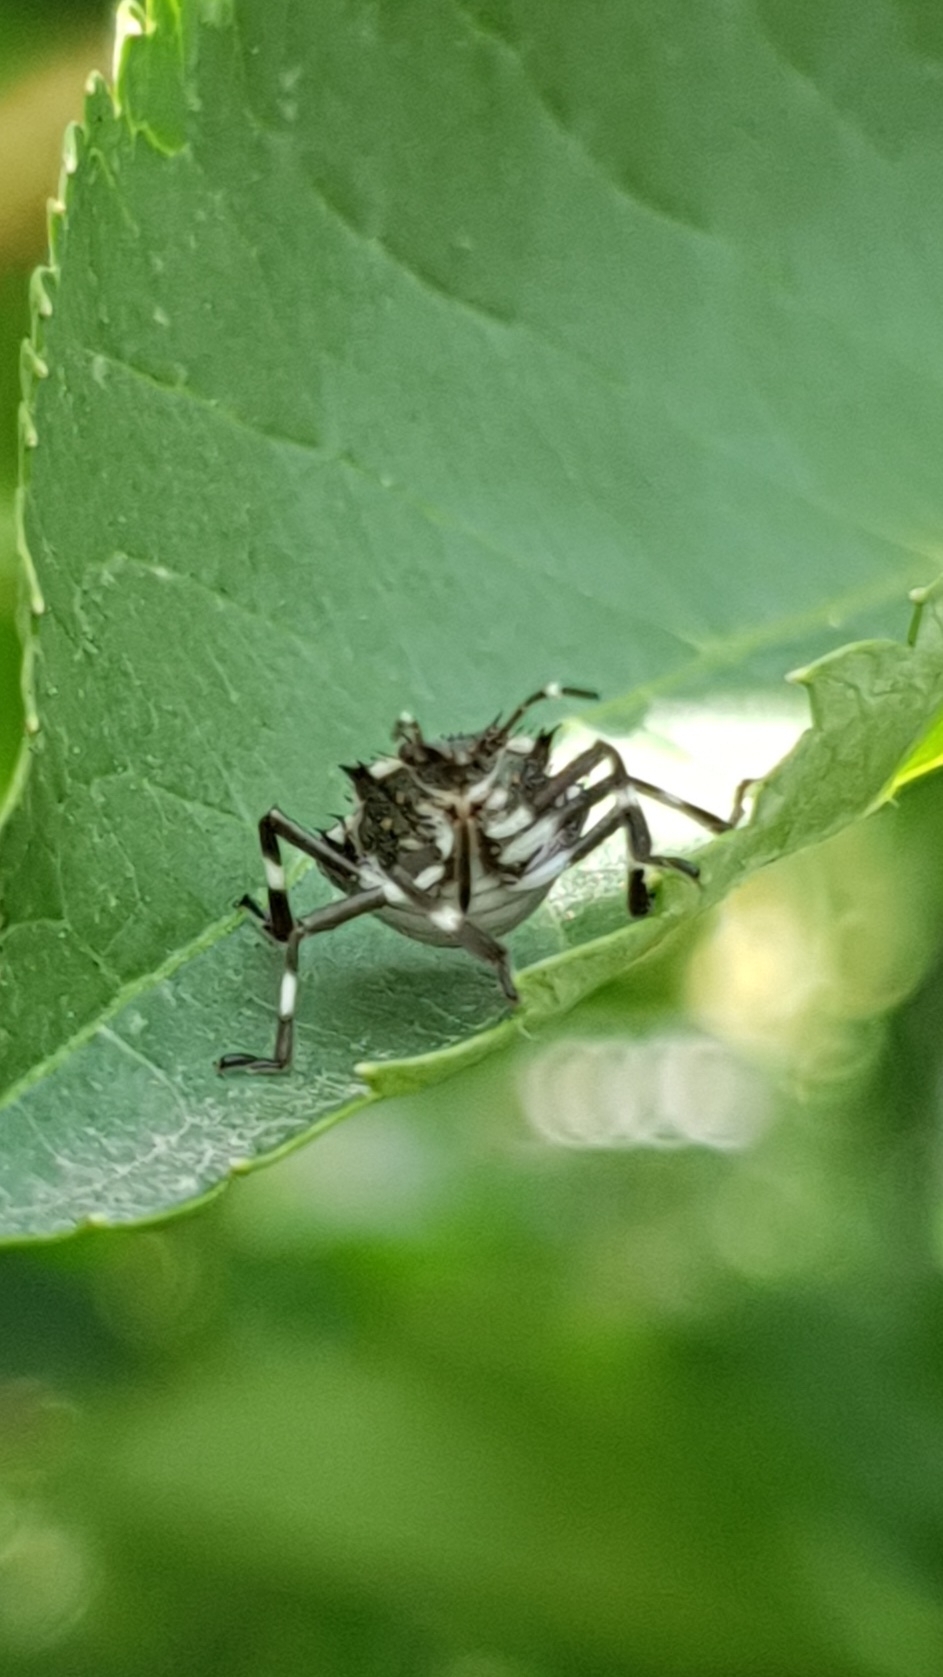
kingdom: Animalia
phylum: Arthropoda
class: Insecta
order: Hemiptera
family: Pentatomidae
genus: Halyomorpha
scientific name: Halyomorpha halys
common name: Brown marmorated stink bug
